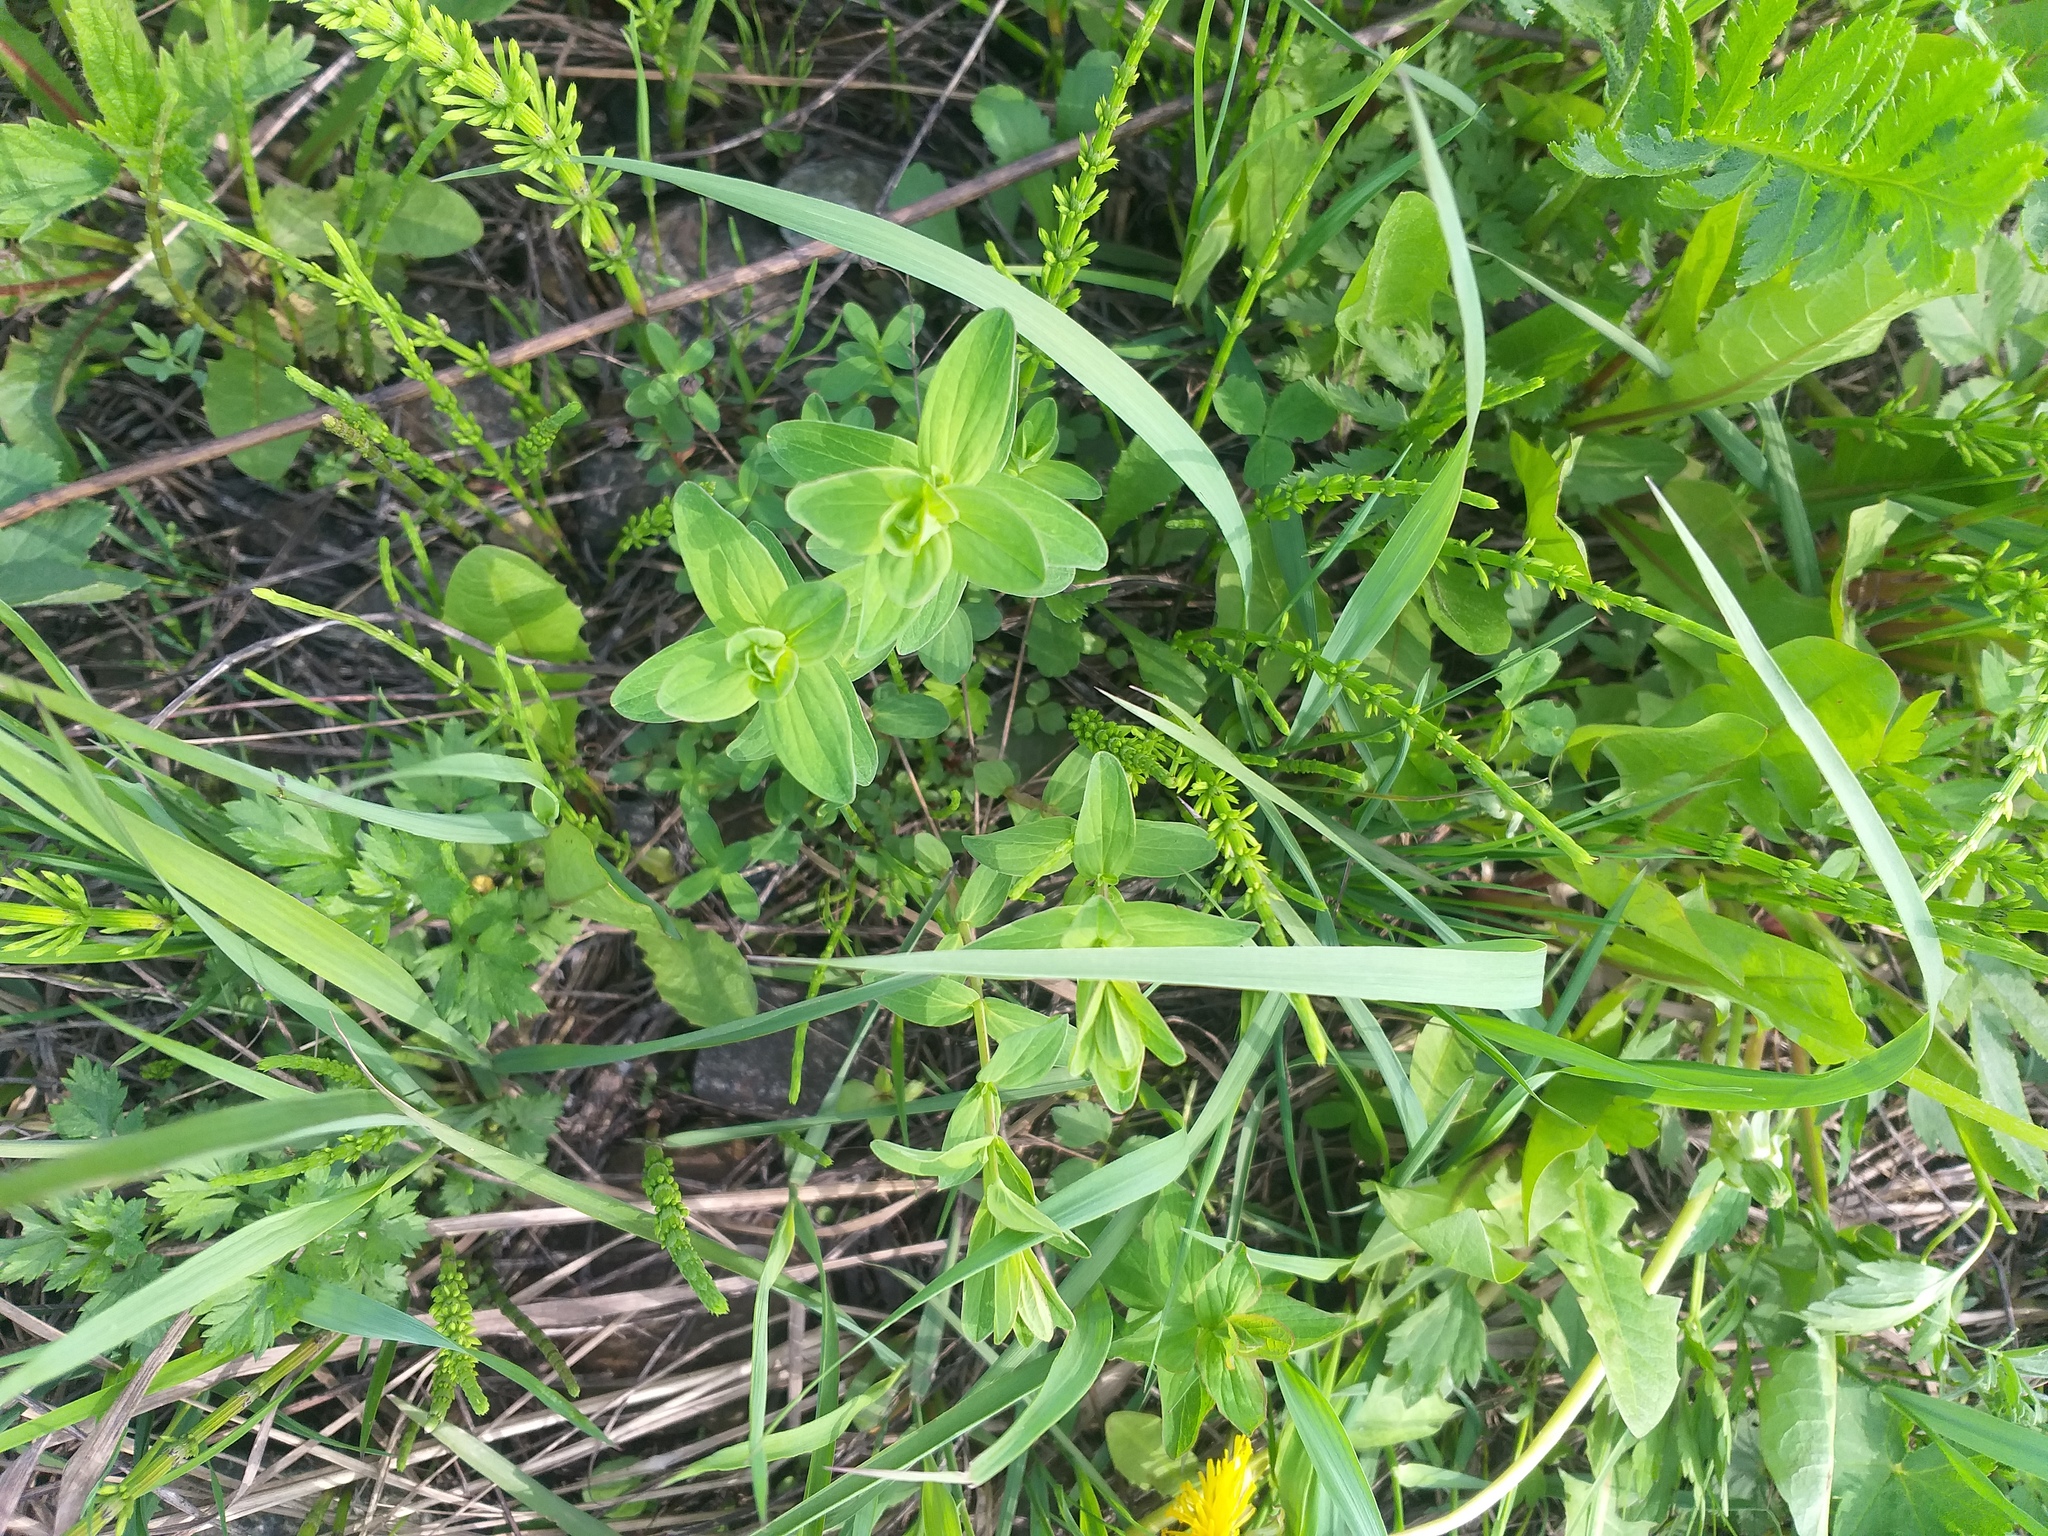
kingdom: Plantae
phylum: Tracheophyta
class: Magnoliopsida
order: Malpighiales
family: Hypericaceae
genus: Hypericum
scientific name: Hypericum perforatum
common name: Common st. johnswort
